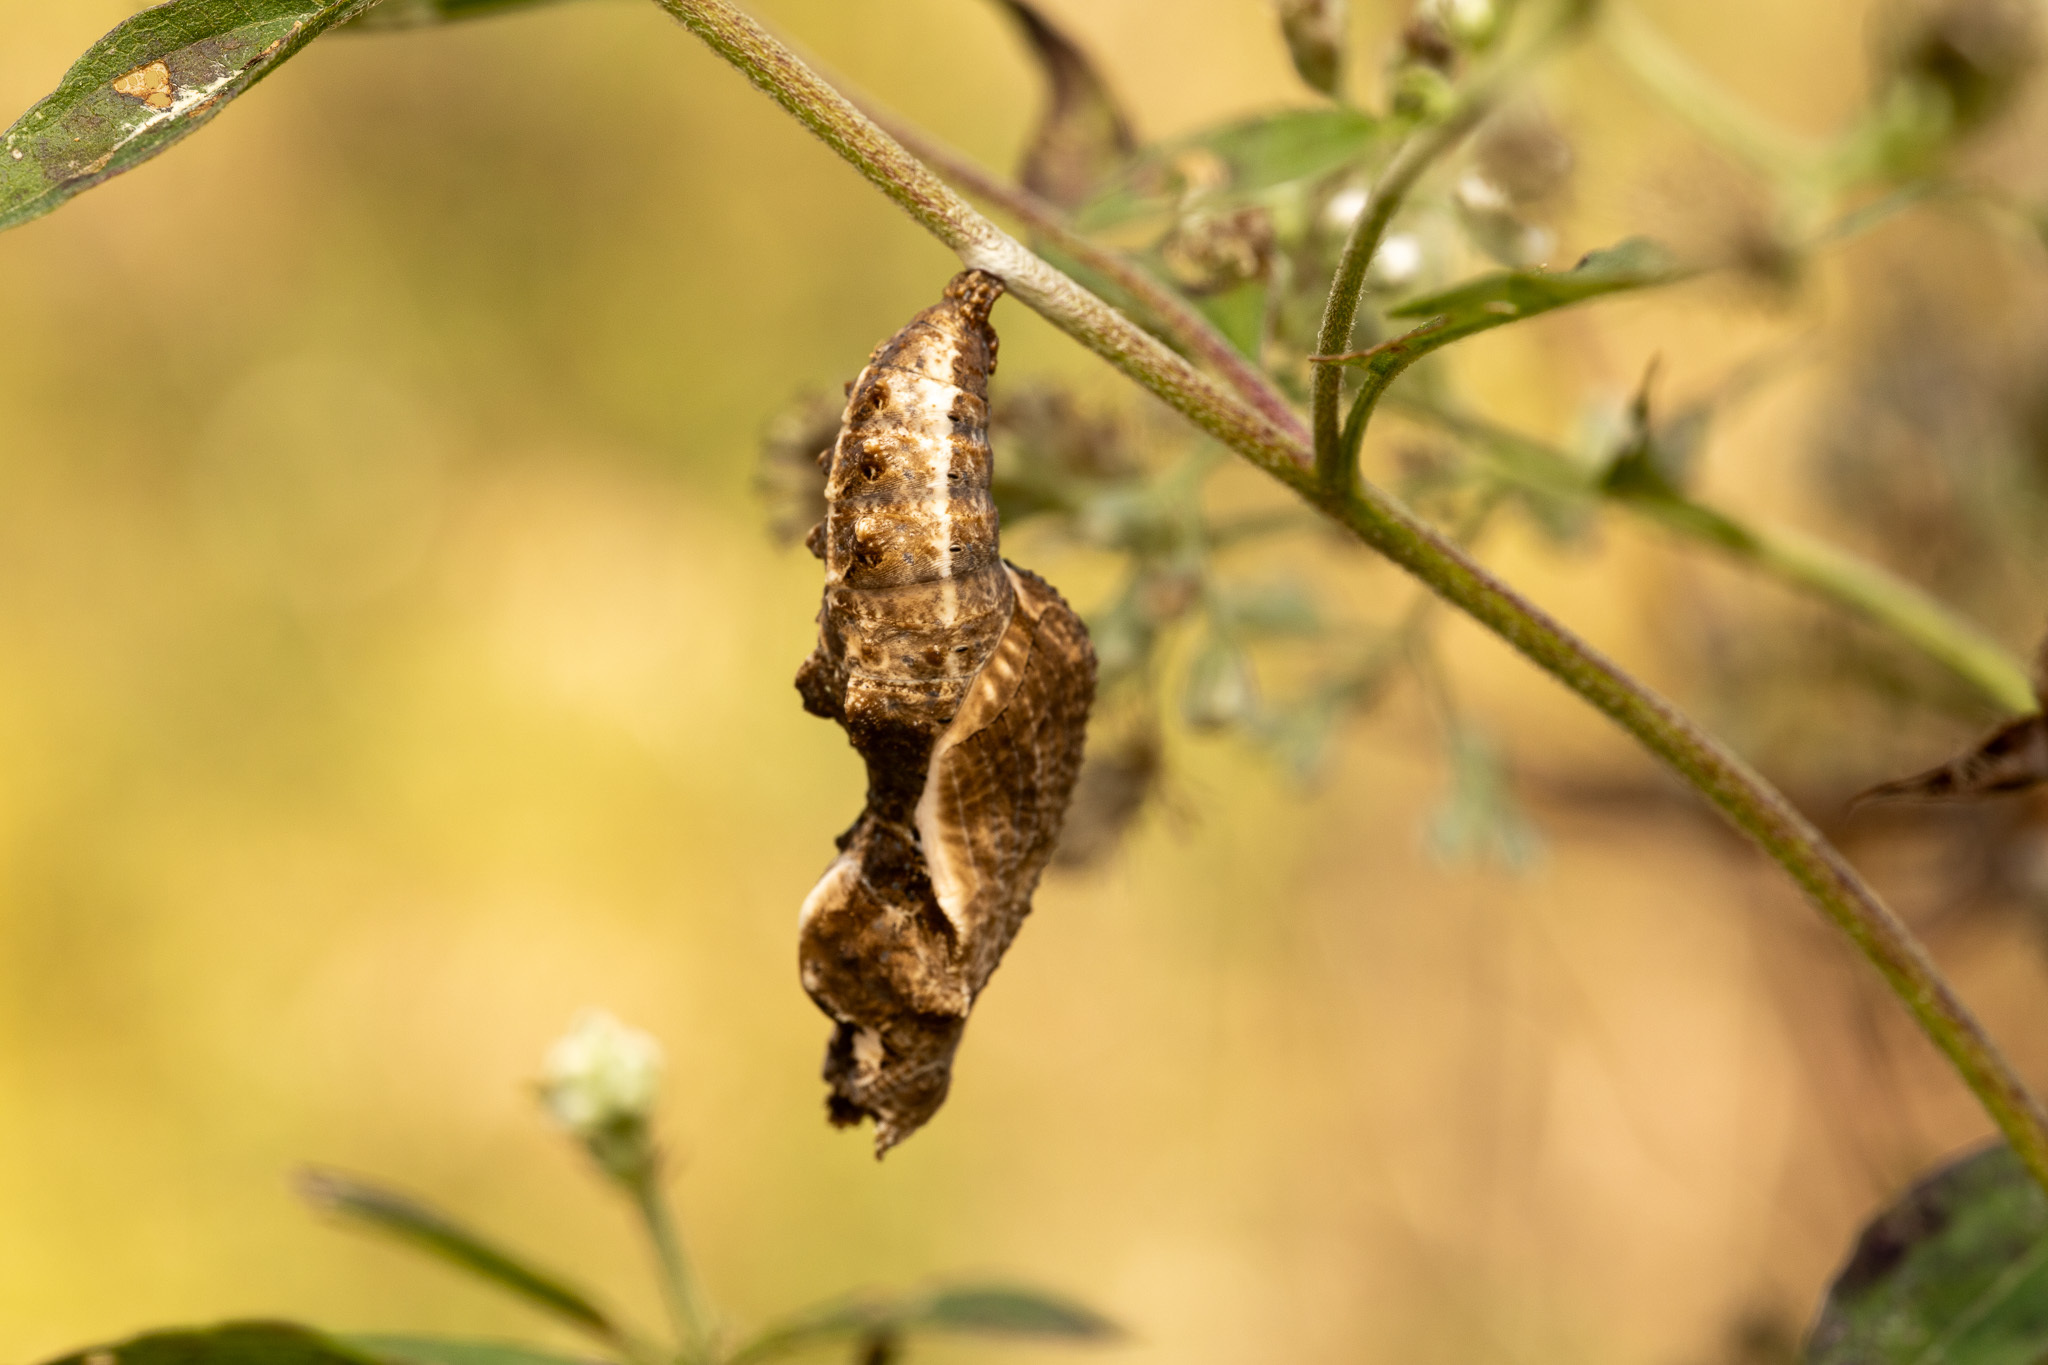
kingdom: Animalia
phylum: Arthropoda
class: Insecta
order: Lepidoptera
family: Nymphalidae
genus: Dione
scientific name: Dione vanillae
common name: Gulf fritillary
